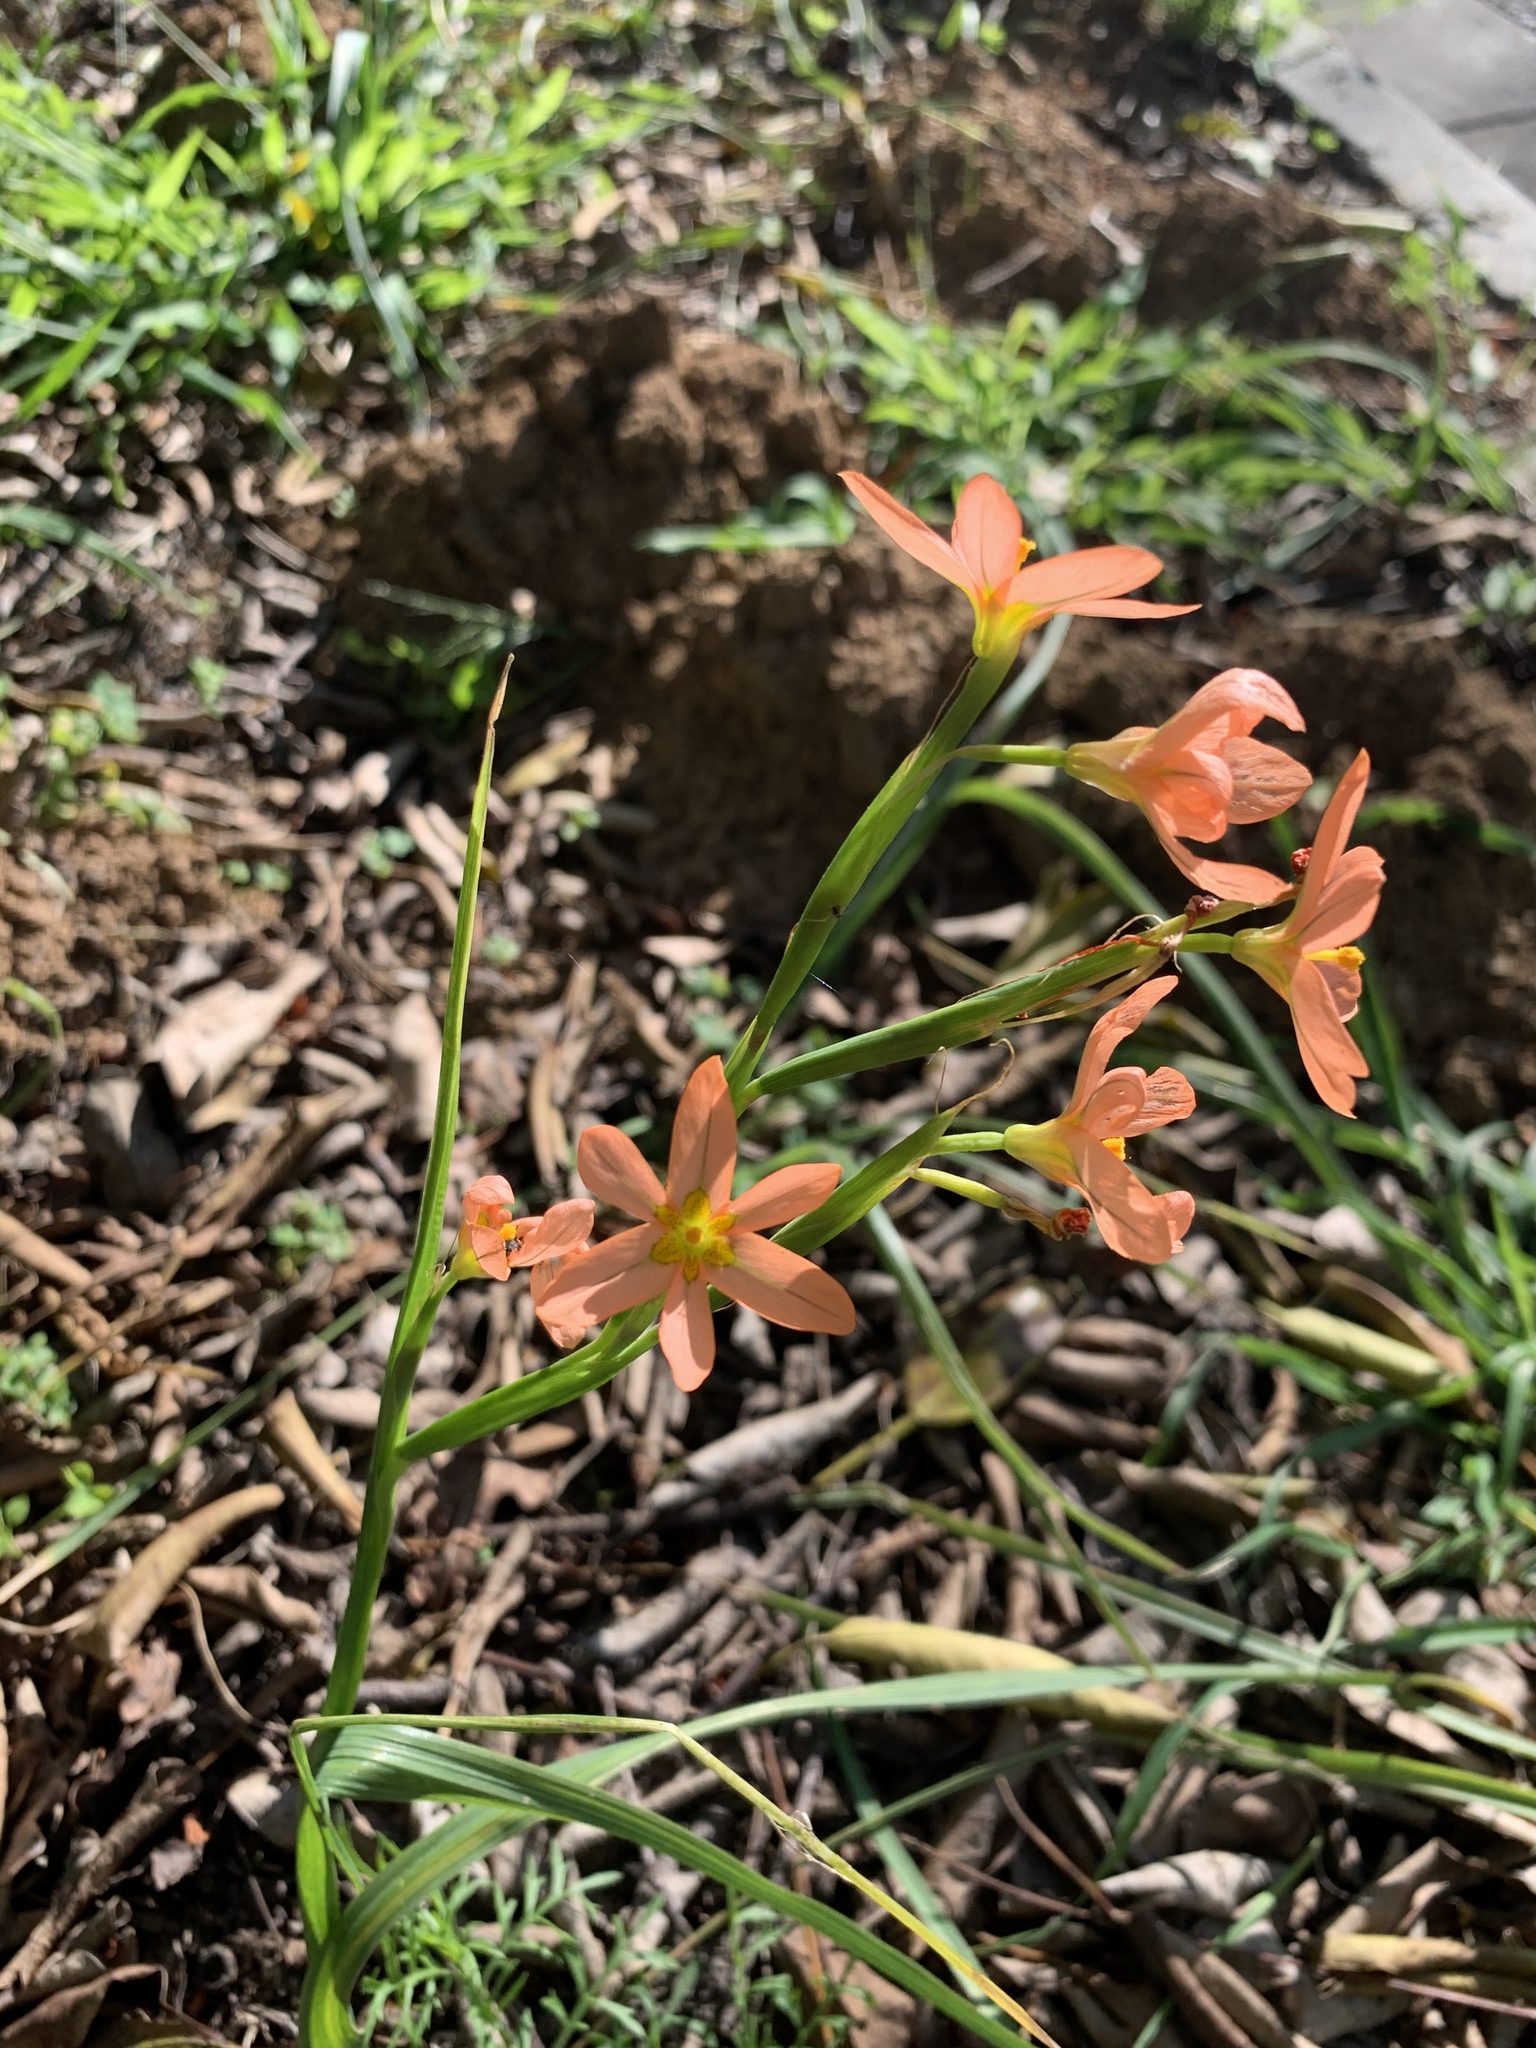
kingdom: Plantae
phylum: Tracheophyta
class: Liliopsida
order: Asparagales
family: Iridaceae
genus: Moraea
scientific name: Moraea miniata
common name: Two-leaf cape-tulip
